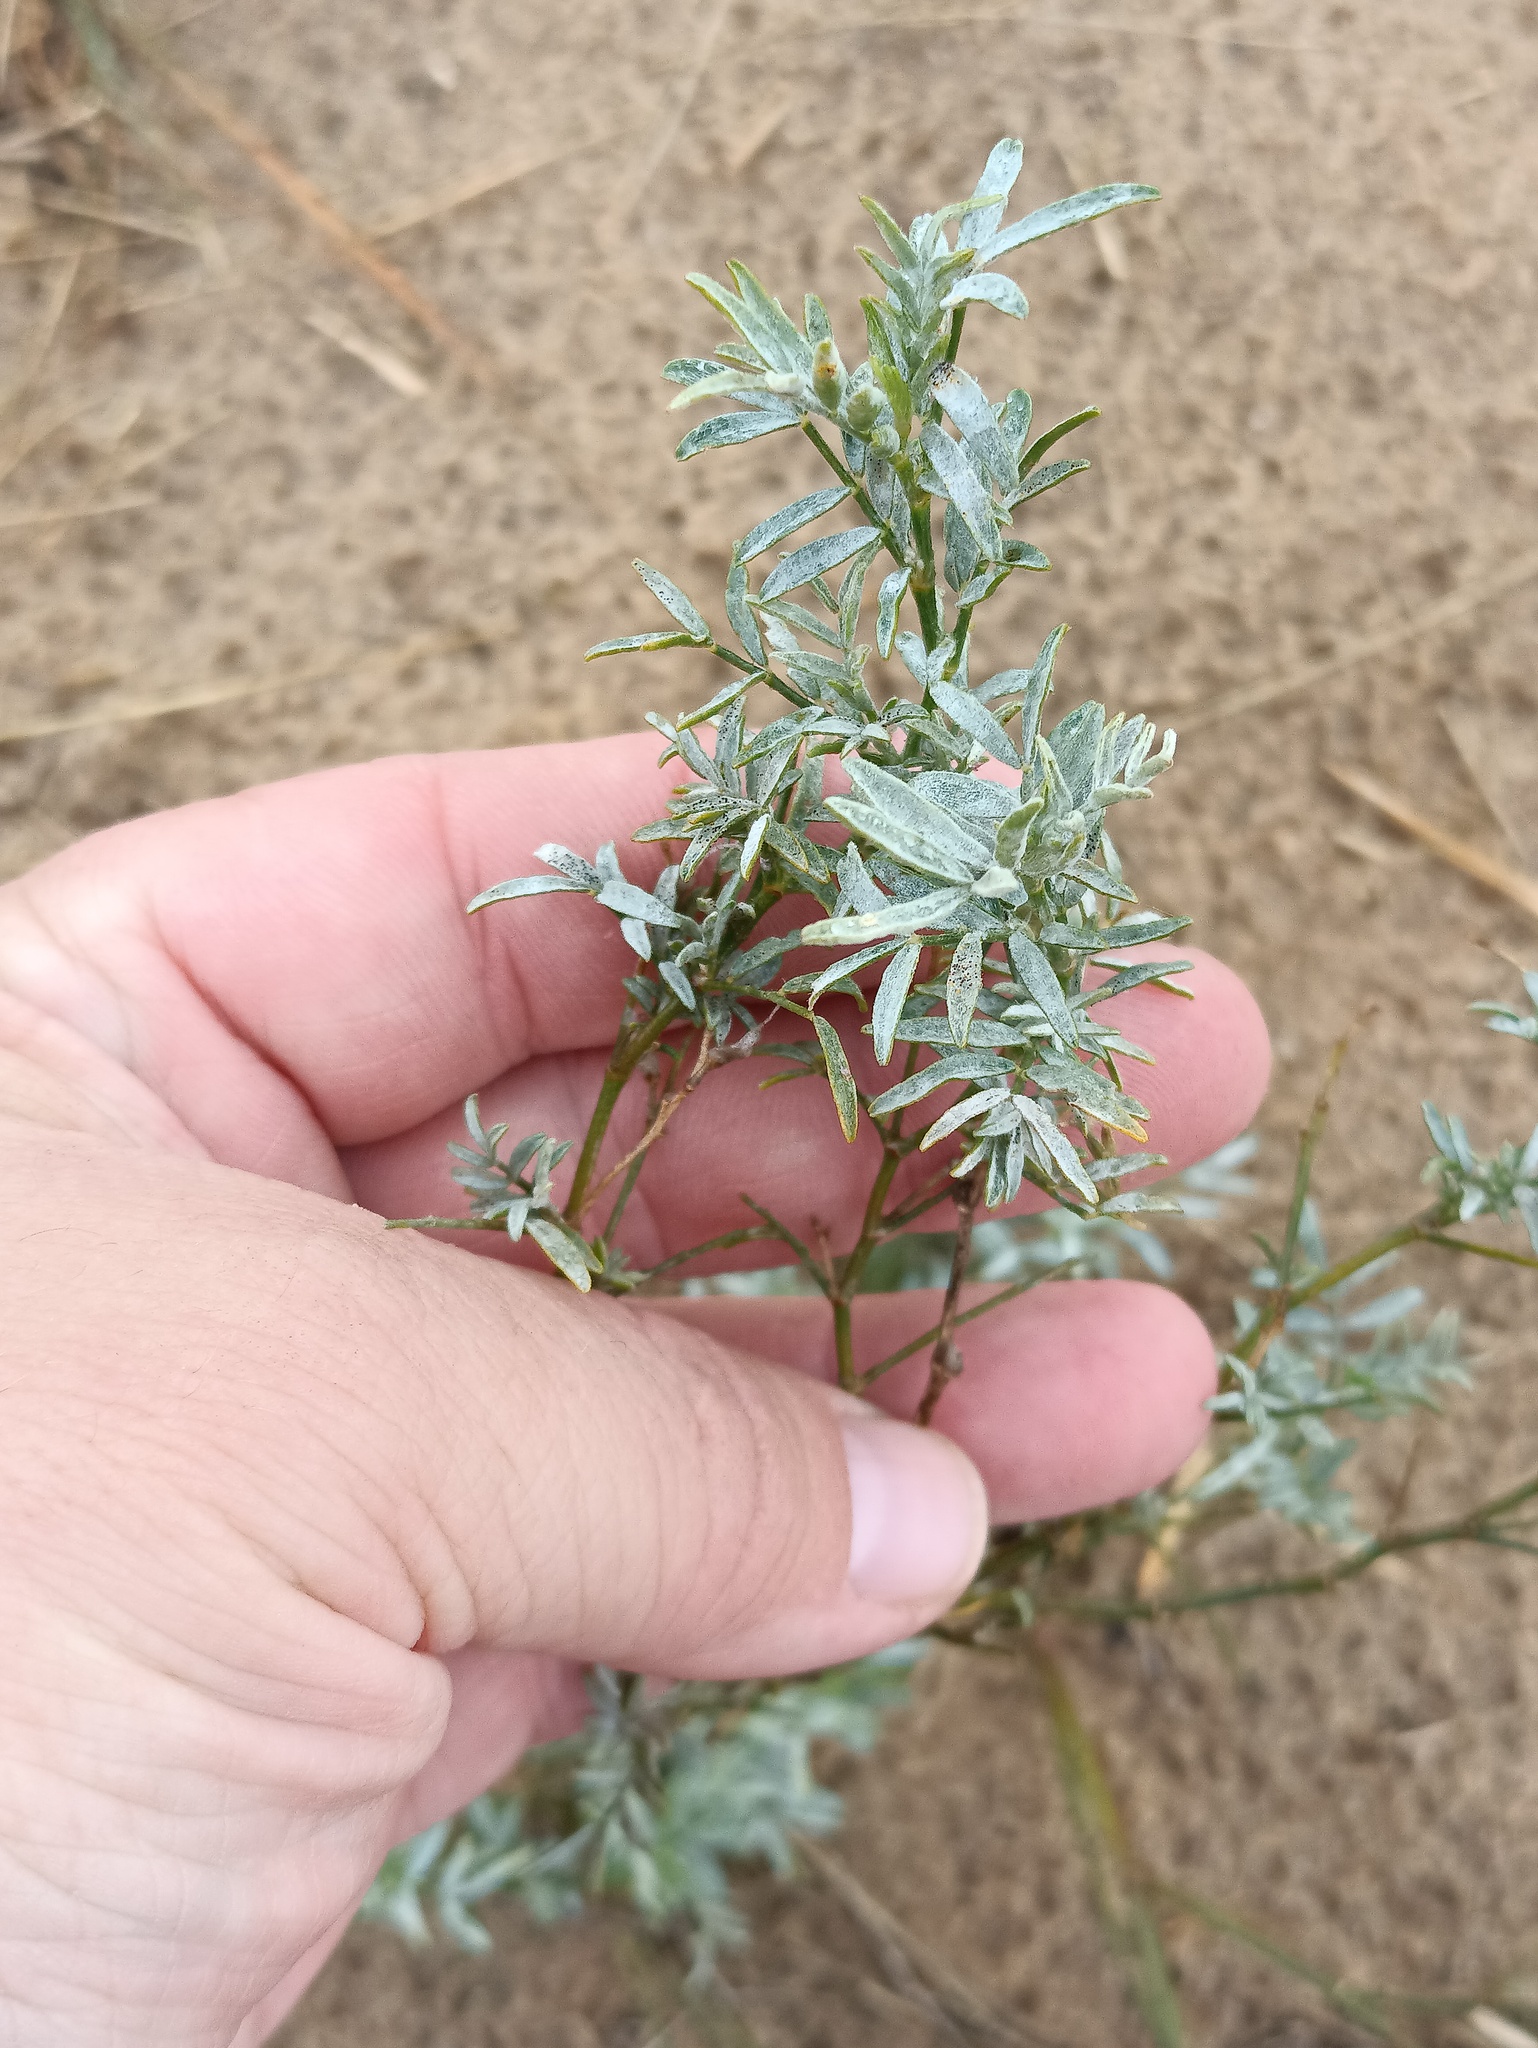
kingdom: Plantae
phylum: Tracheophyta
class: Magnoliopsida
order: Fabales
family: Fabaceae
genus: Astragalus
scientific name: Astragalus arenarius
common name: Arenarious milk-vetch
